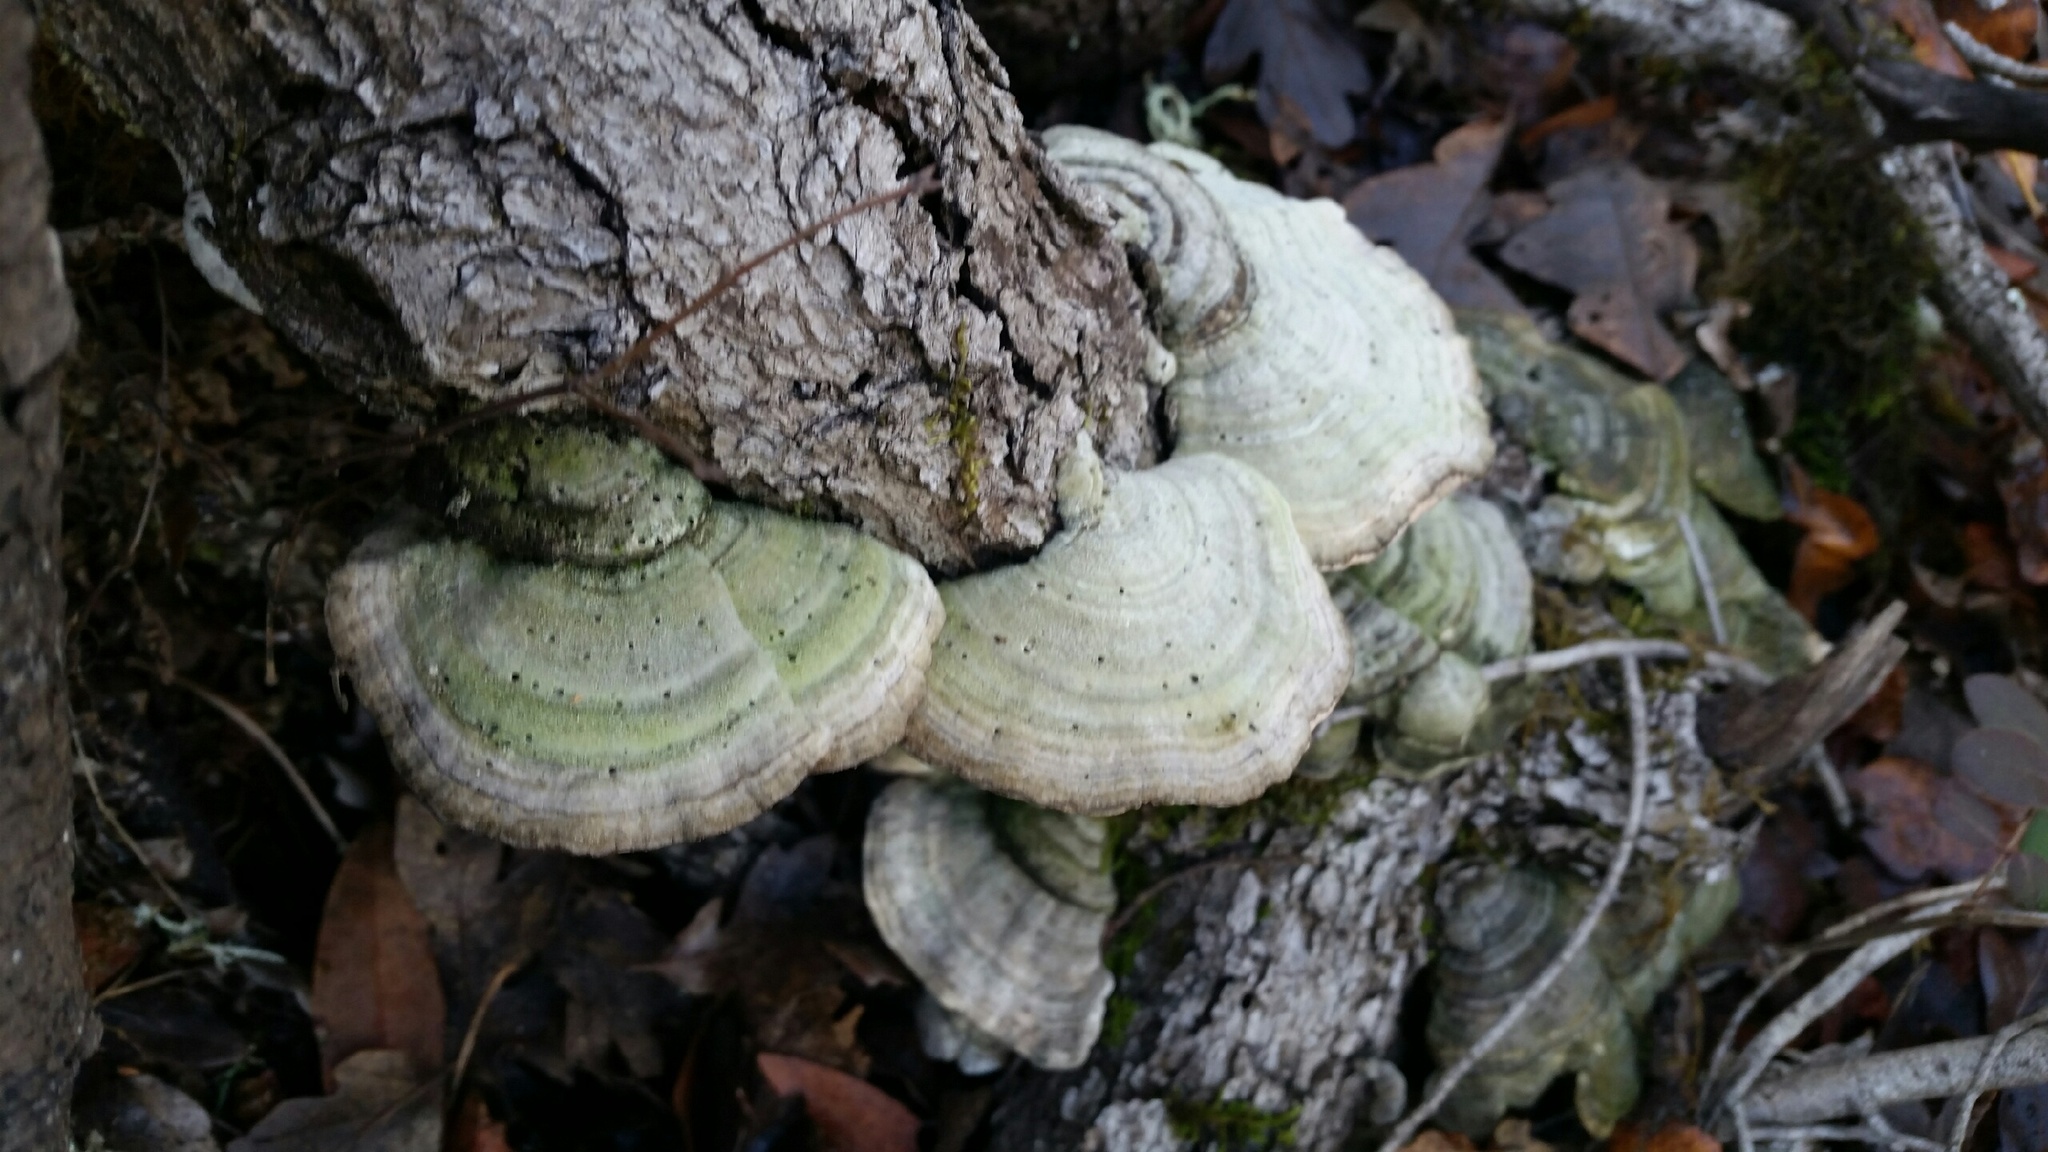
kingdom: Fungi
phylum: Basidiomycota
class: Agaricomycetes
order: Polyporales
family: Polyporaceae
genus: Lenzites
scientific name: Lenzites betulinus
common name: Birch mazegill
